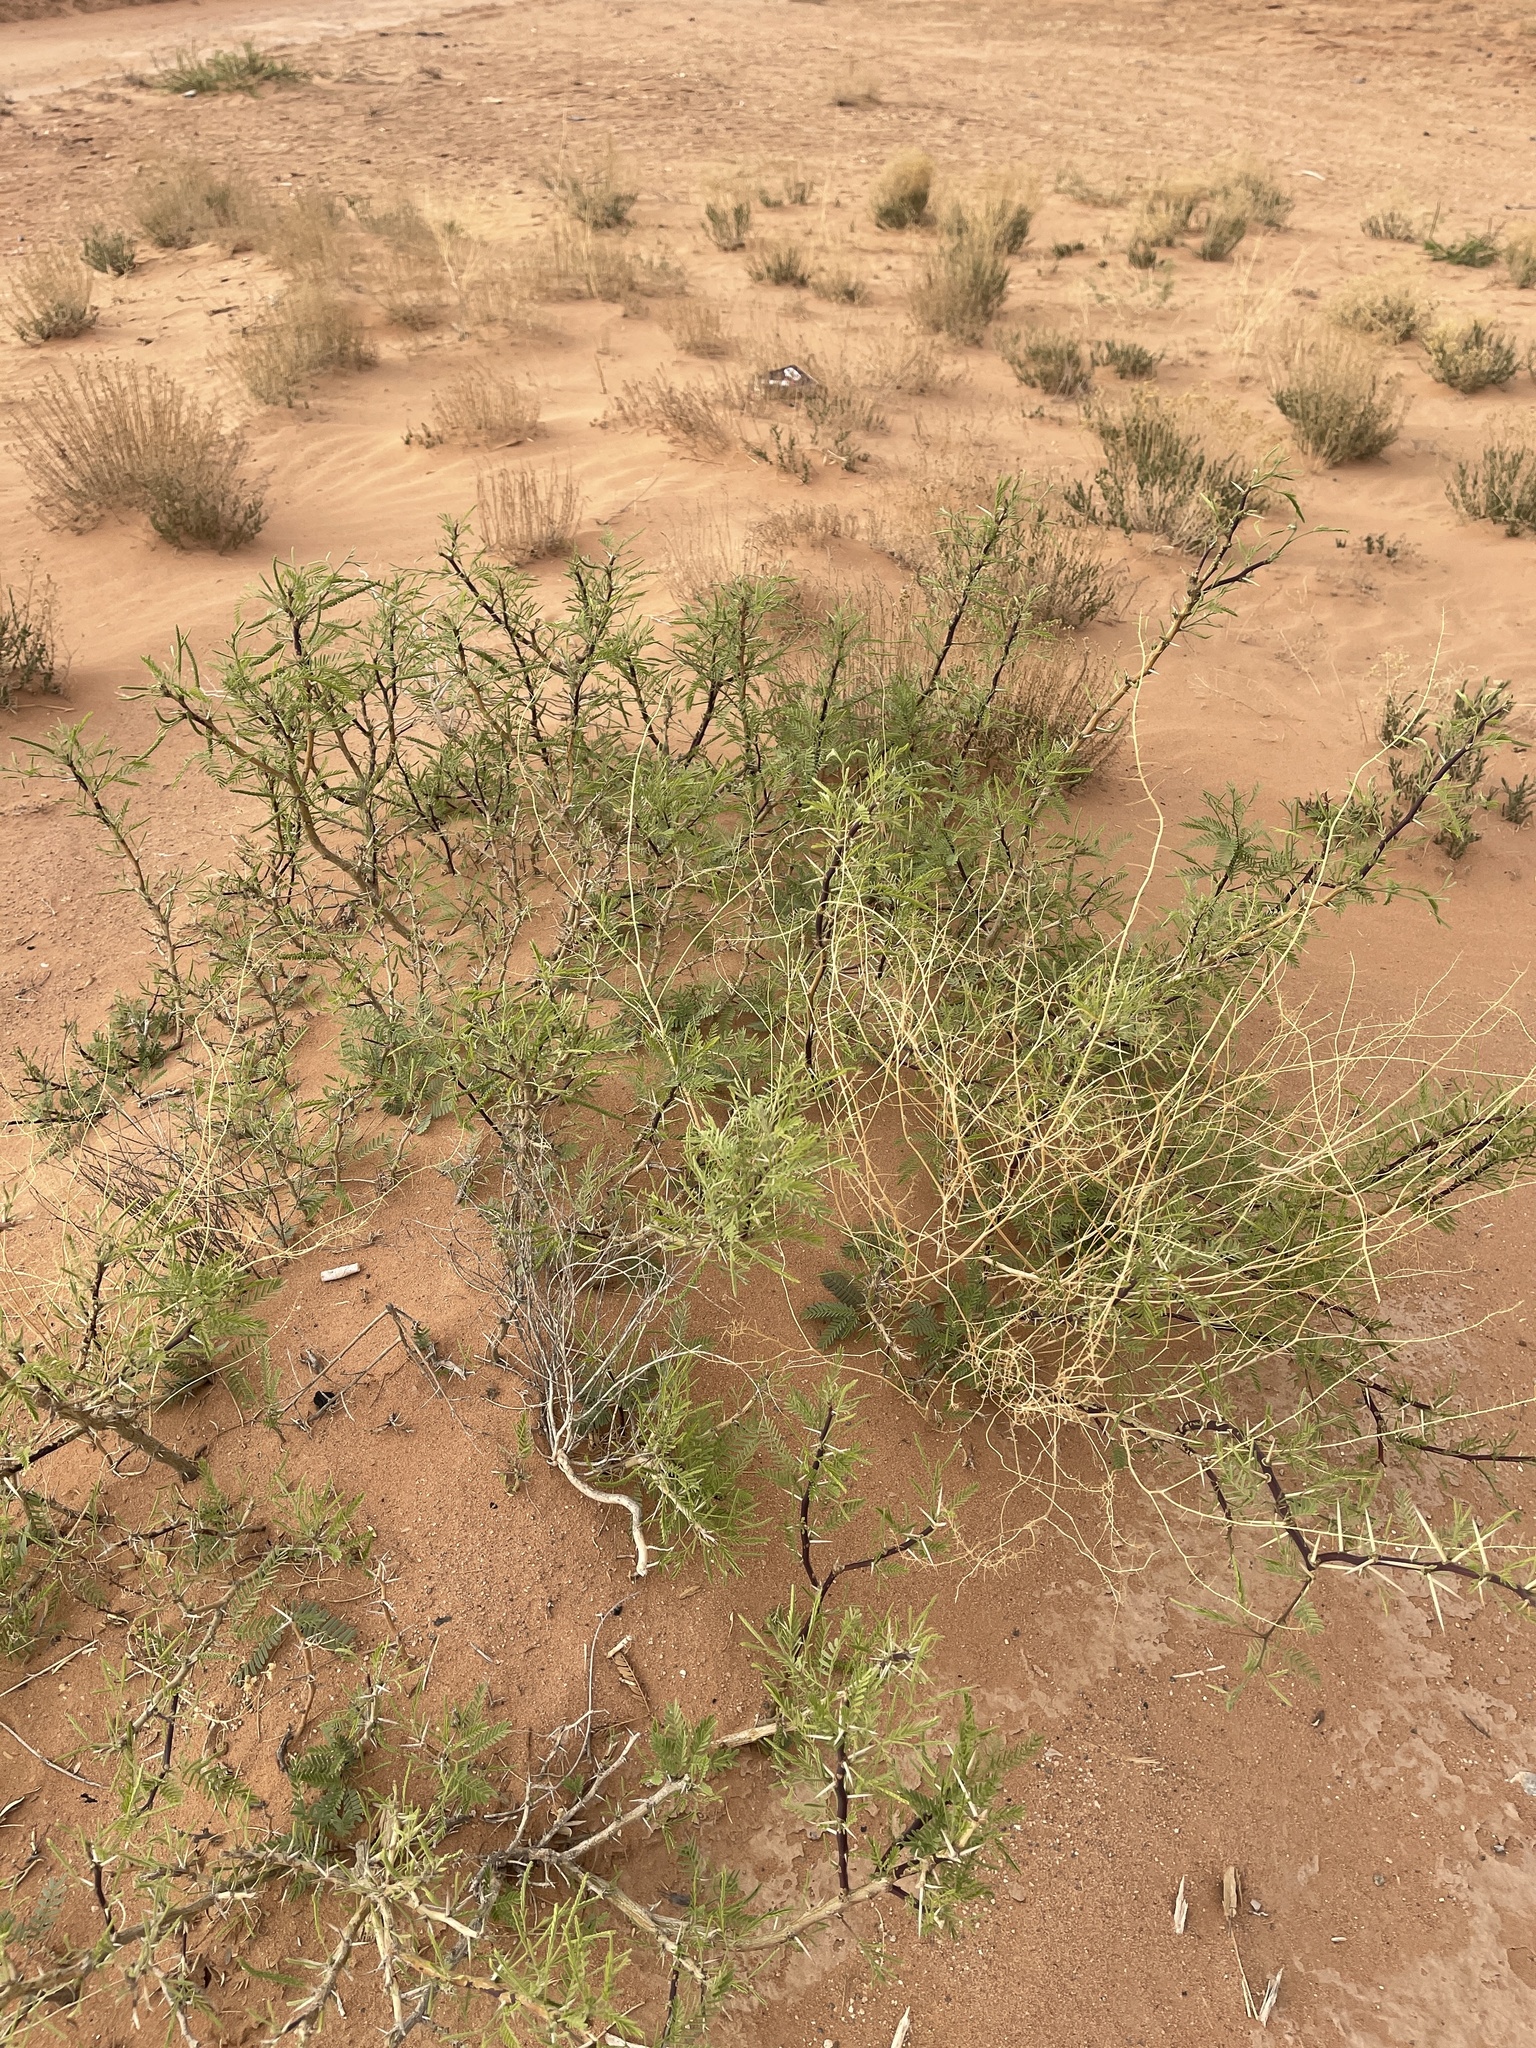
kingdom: Plantae
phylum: Tracheophyta
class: Magnoliopsida
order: Fabales
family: Fabaceae
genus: Prosopis
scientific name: Prosopis glandulosa
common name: Honey mesquite
